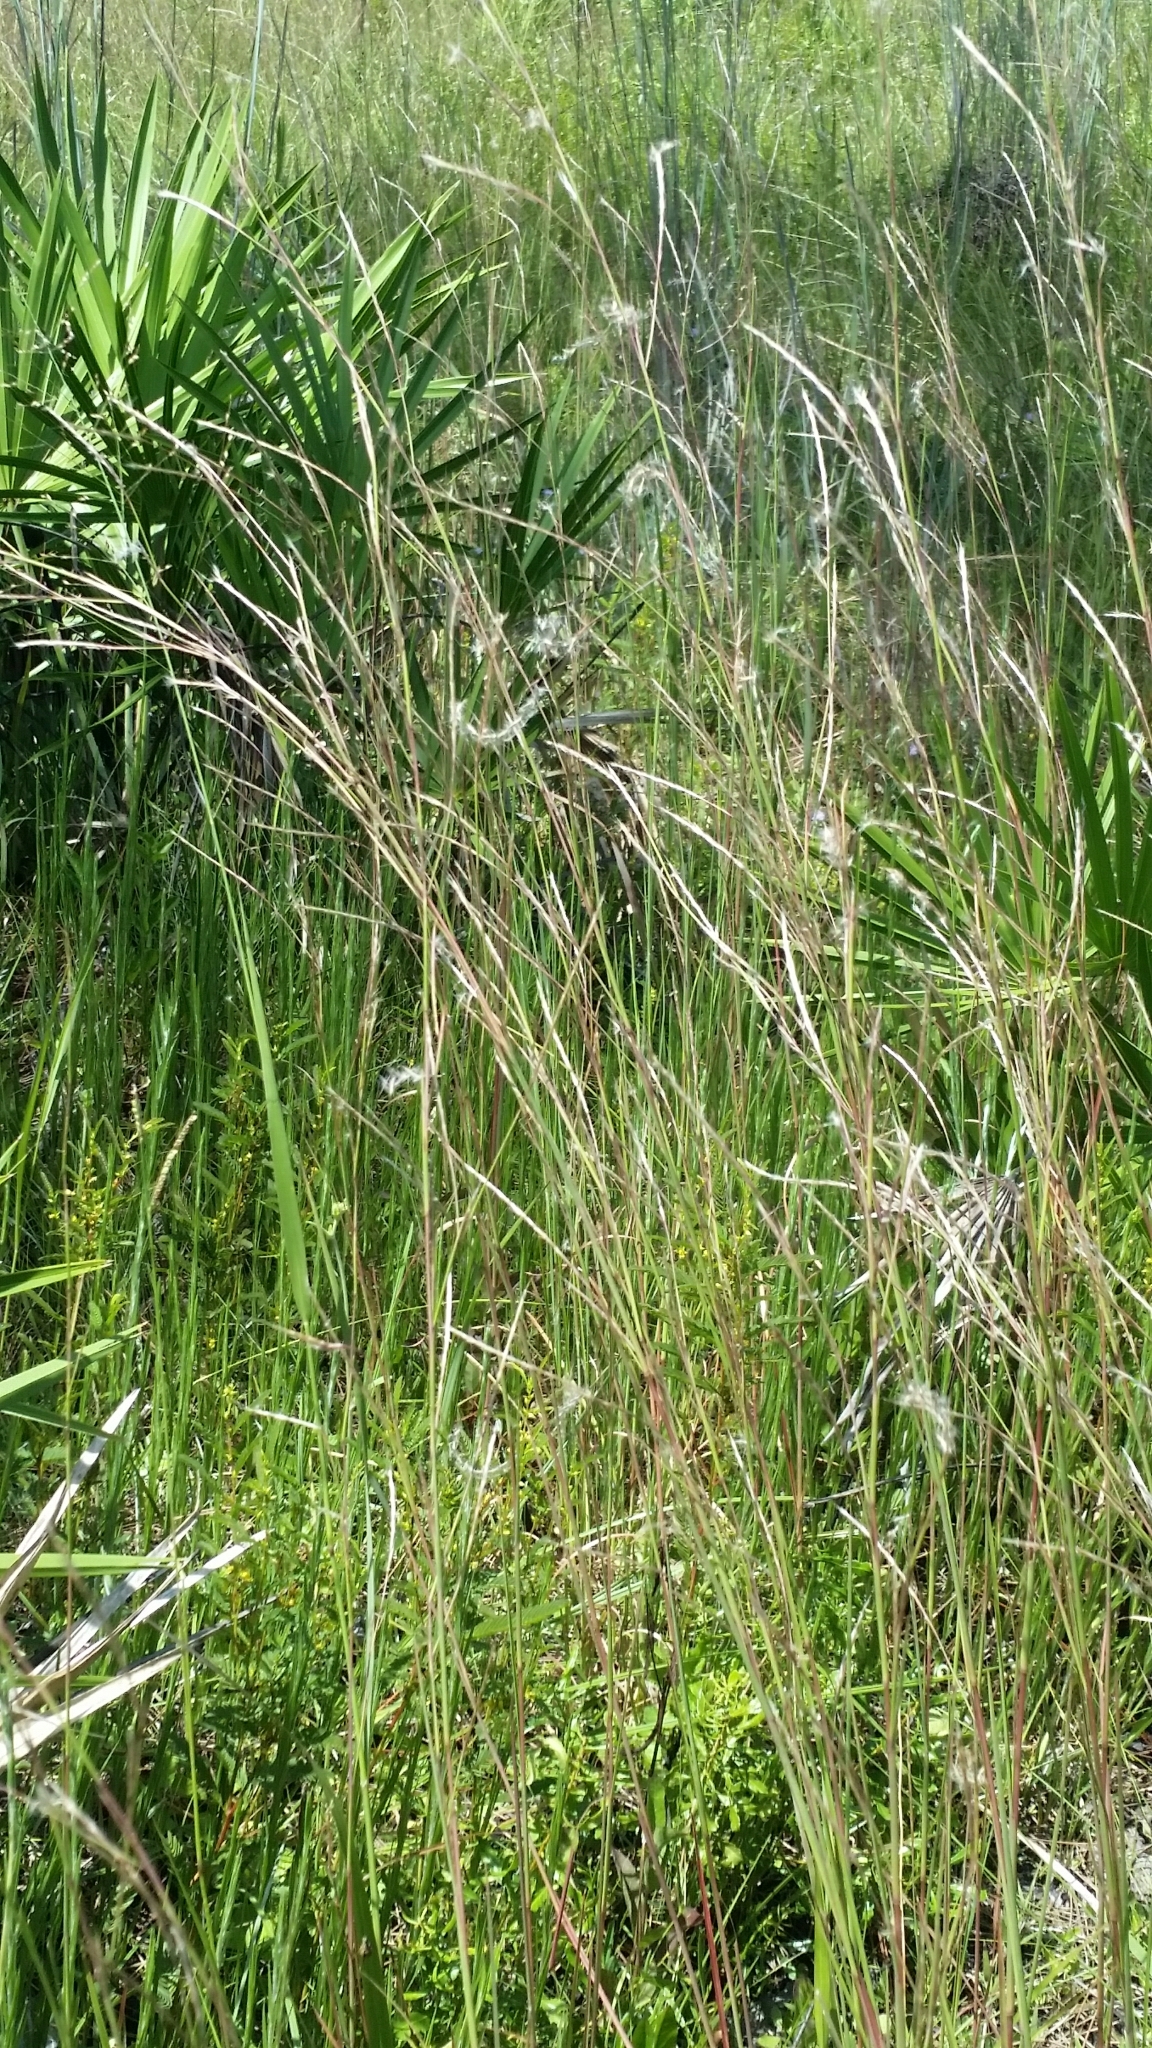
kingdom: Plantae
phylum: Tracheophyta
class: Liliopsida
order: Poales
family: Poaceae
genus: Andropogon
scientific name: Andropogon stolonifer
